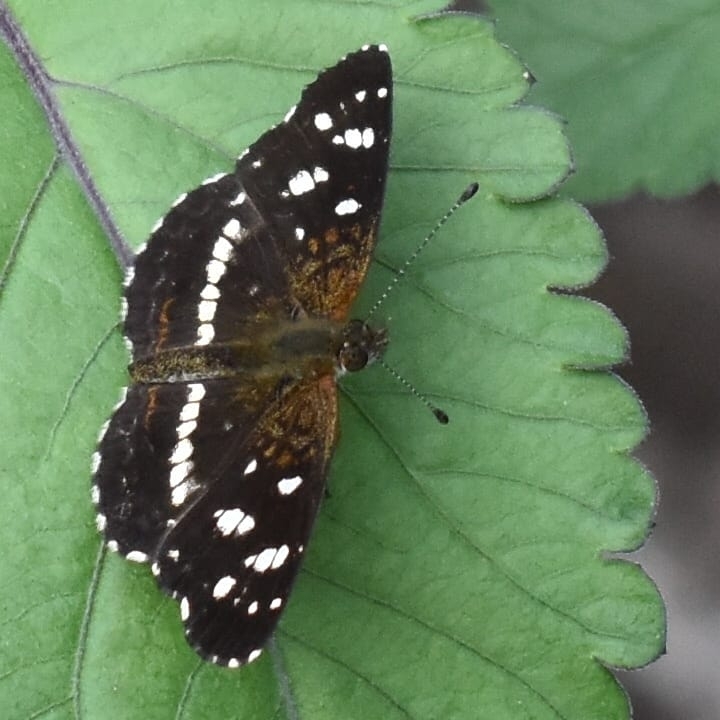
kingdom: Animalia
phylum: Arthropoda
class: Insecta
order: Lepidoptera
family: Nymphalidae
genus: Ortilia
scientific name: Ortilia ithra
